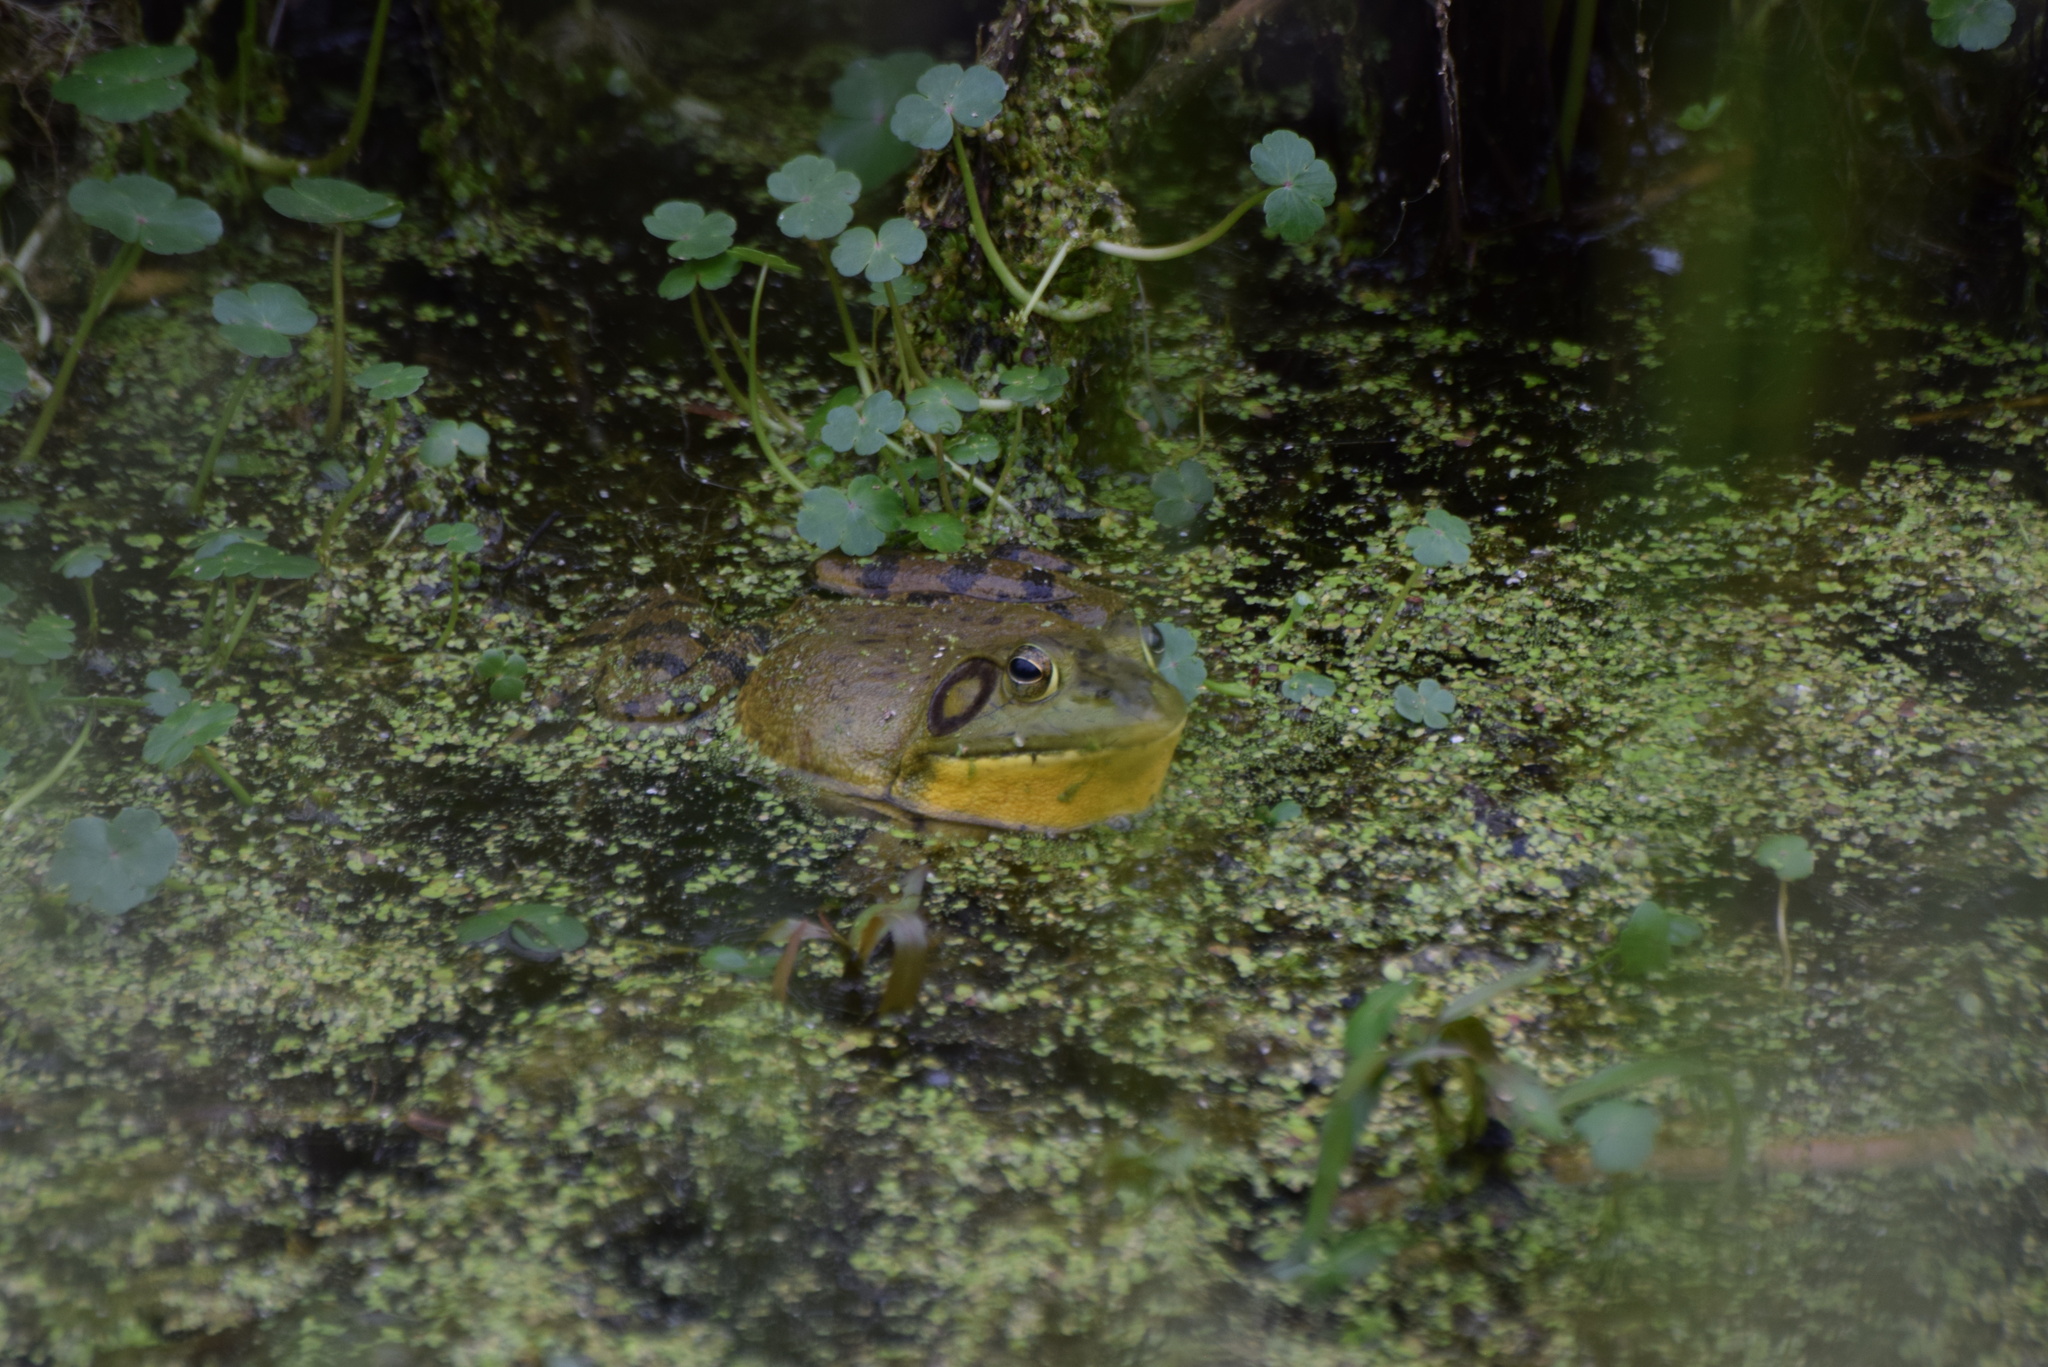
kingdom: Animalia
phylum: Chordata
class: Amphibia
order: Anura
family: Ranidae
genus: Lithobates
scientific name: Lithobates catesbeianus
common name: American bullfrog
